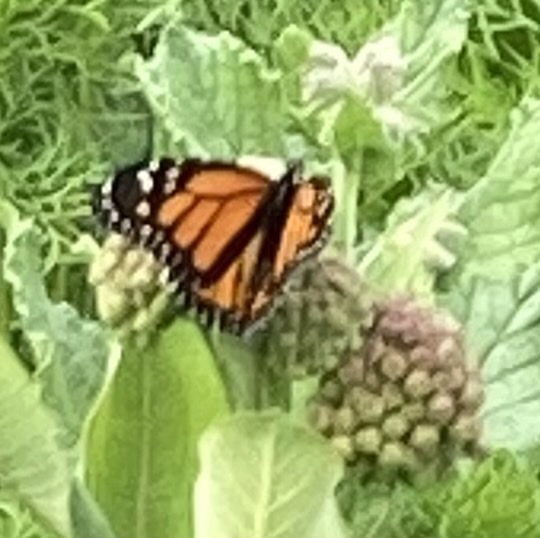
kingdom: Animalia
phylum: Arthropoda
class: Insecta
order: Lepidoptera
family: Nymphalidae
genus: Danaus
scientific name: Danaus plexippus
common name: Monarch
